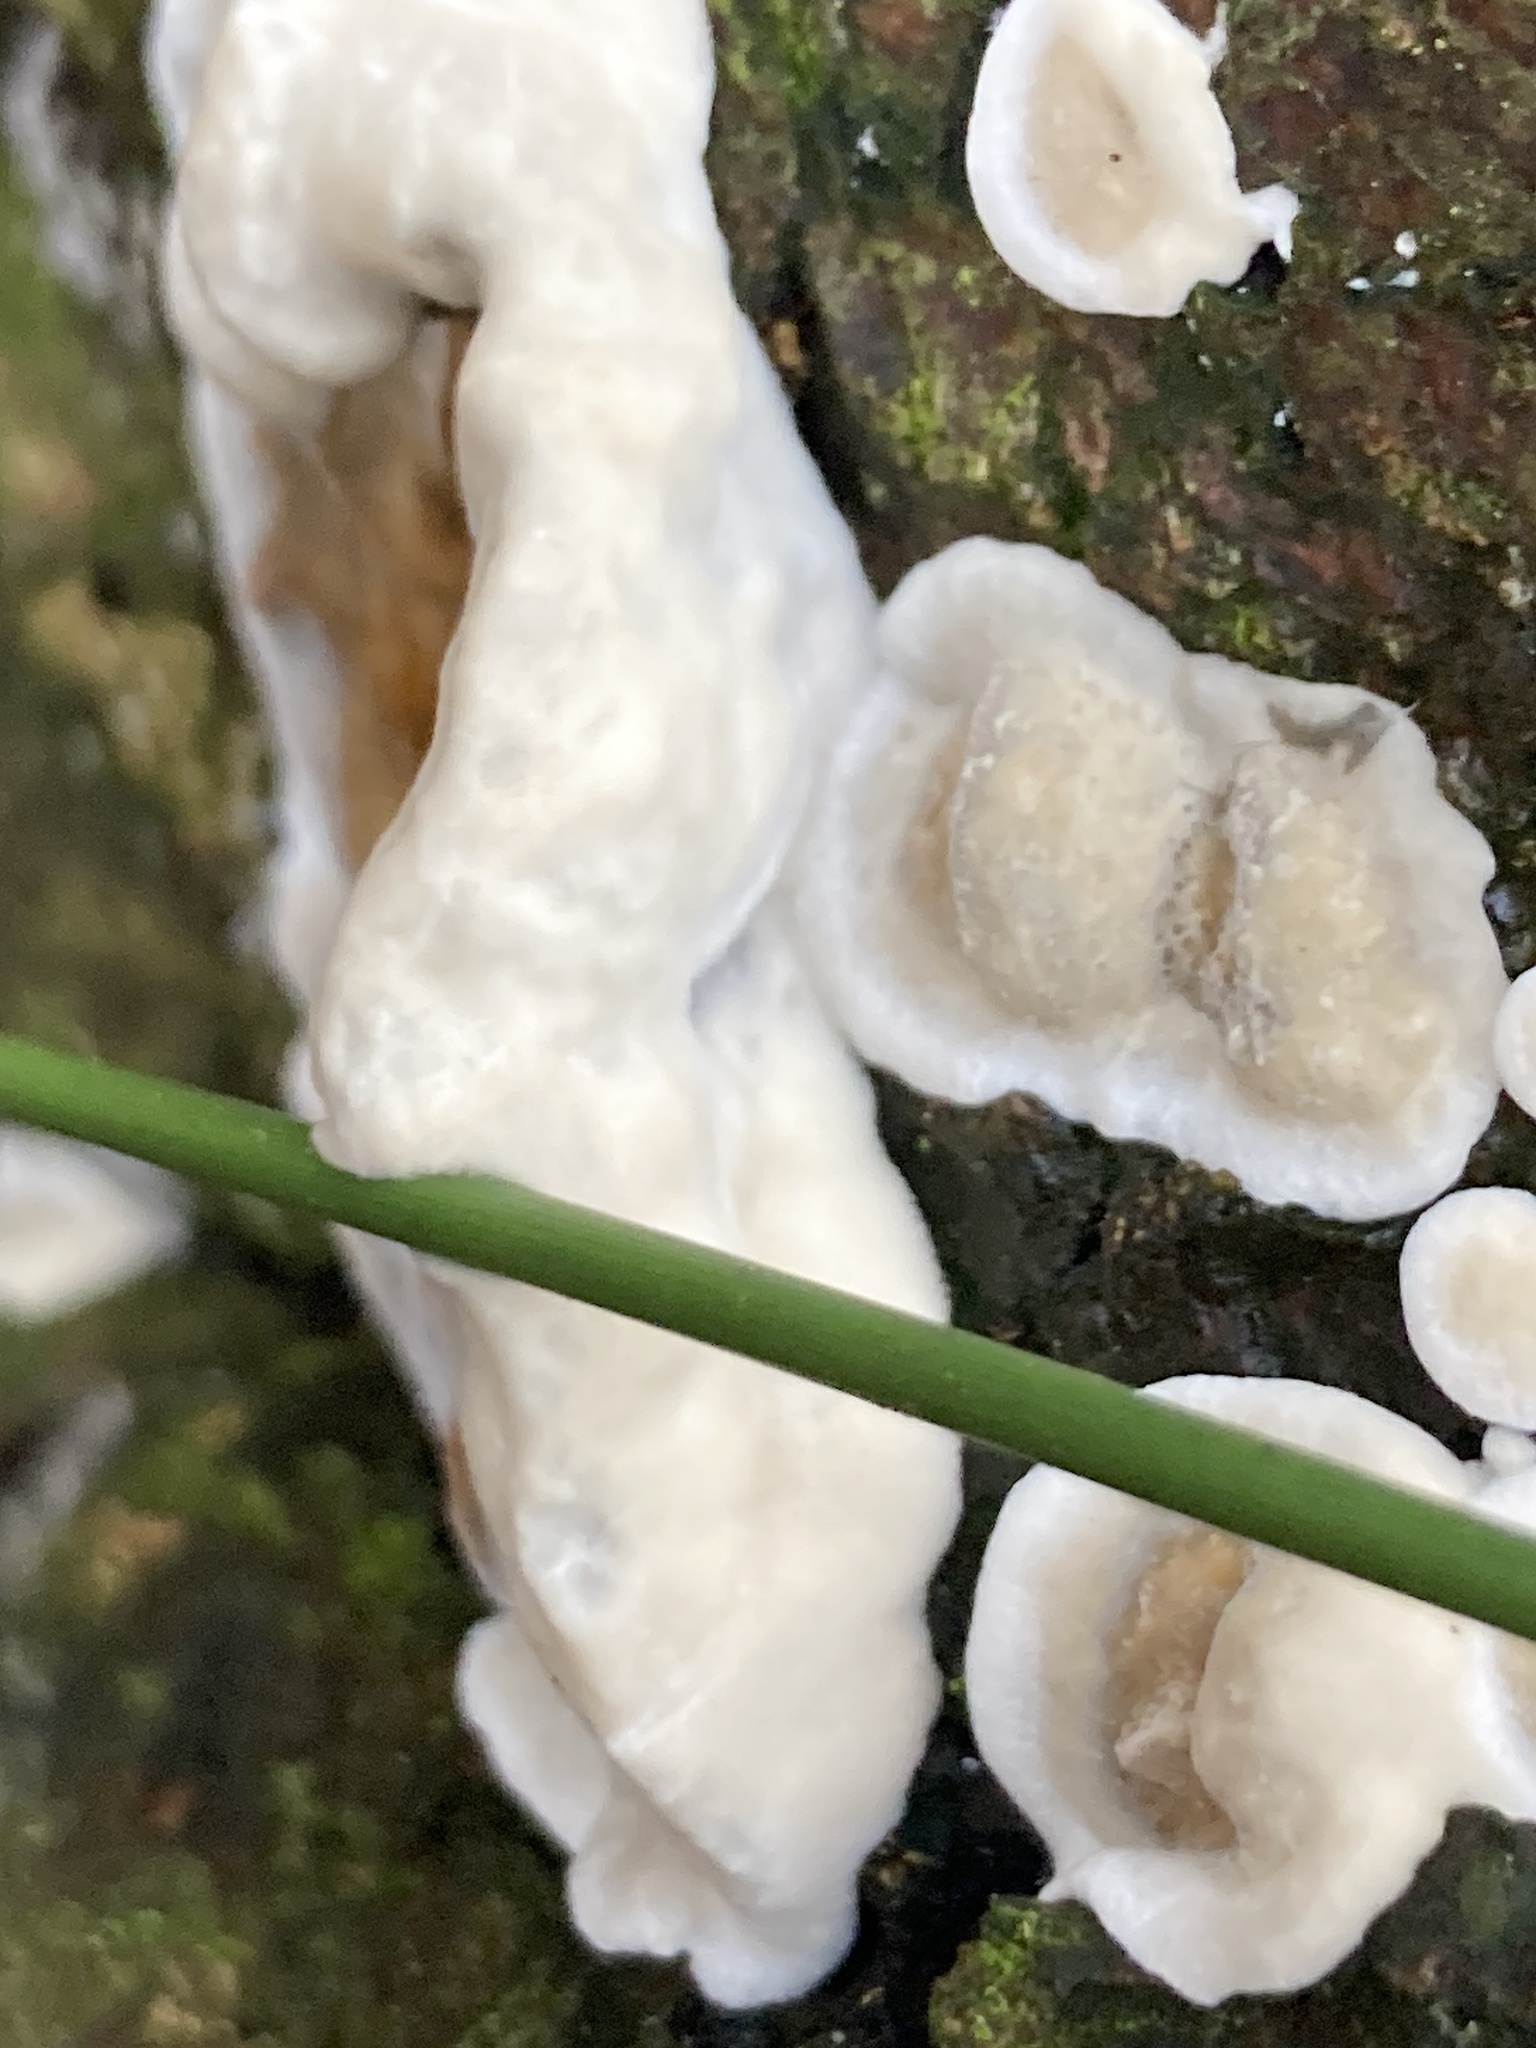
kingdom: Fungi
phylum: Basidiomycota
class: Agaricomycetes
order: Polyporales
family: Phanerochaetaceae
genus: Bjerkandera
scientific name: Bjerkandera adusta
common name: Smoky bracket
